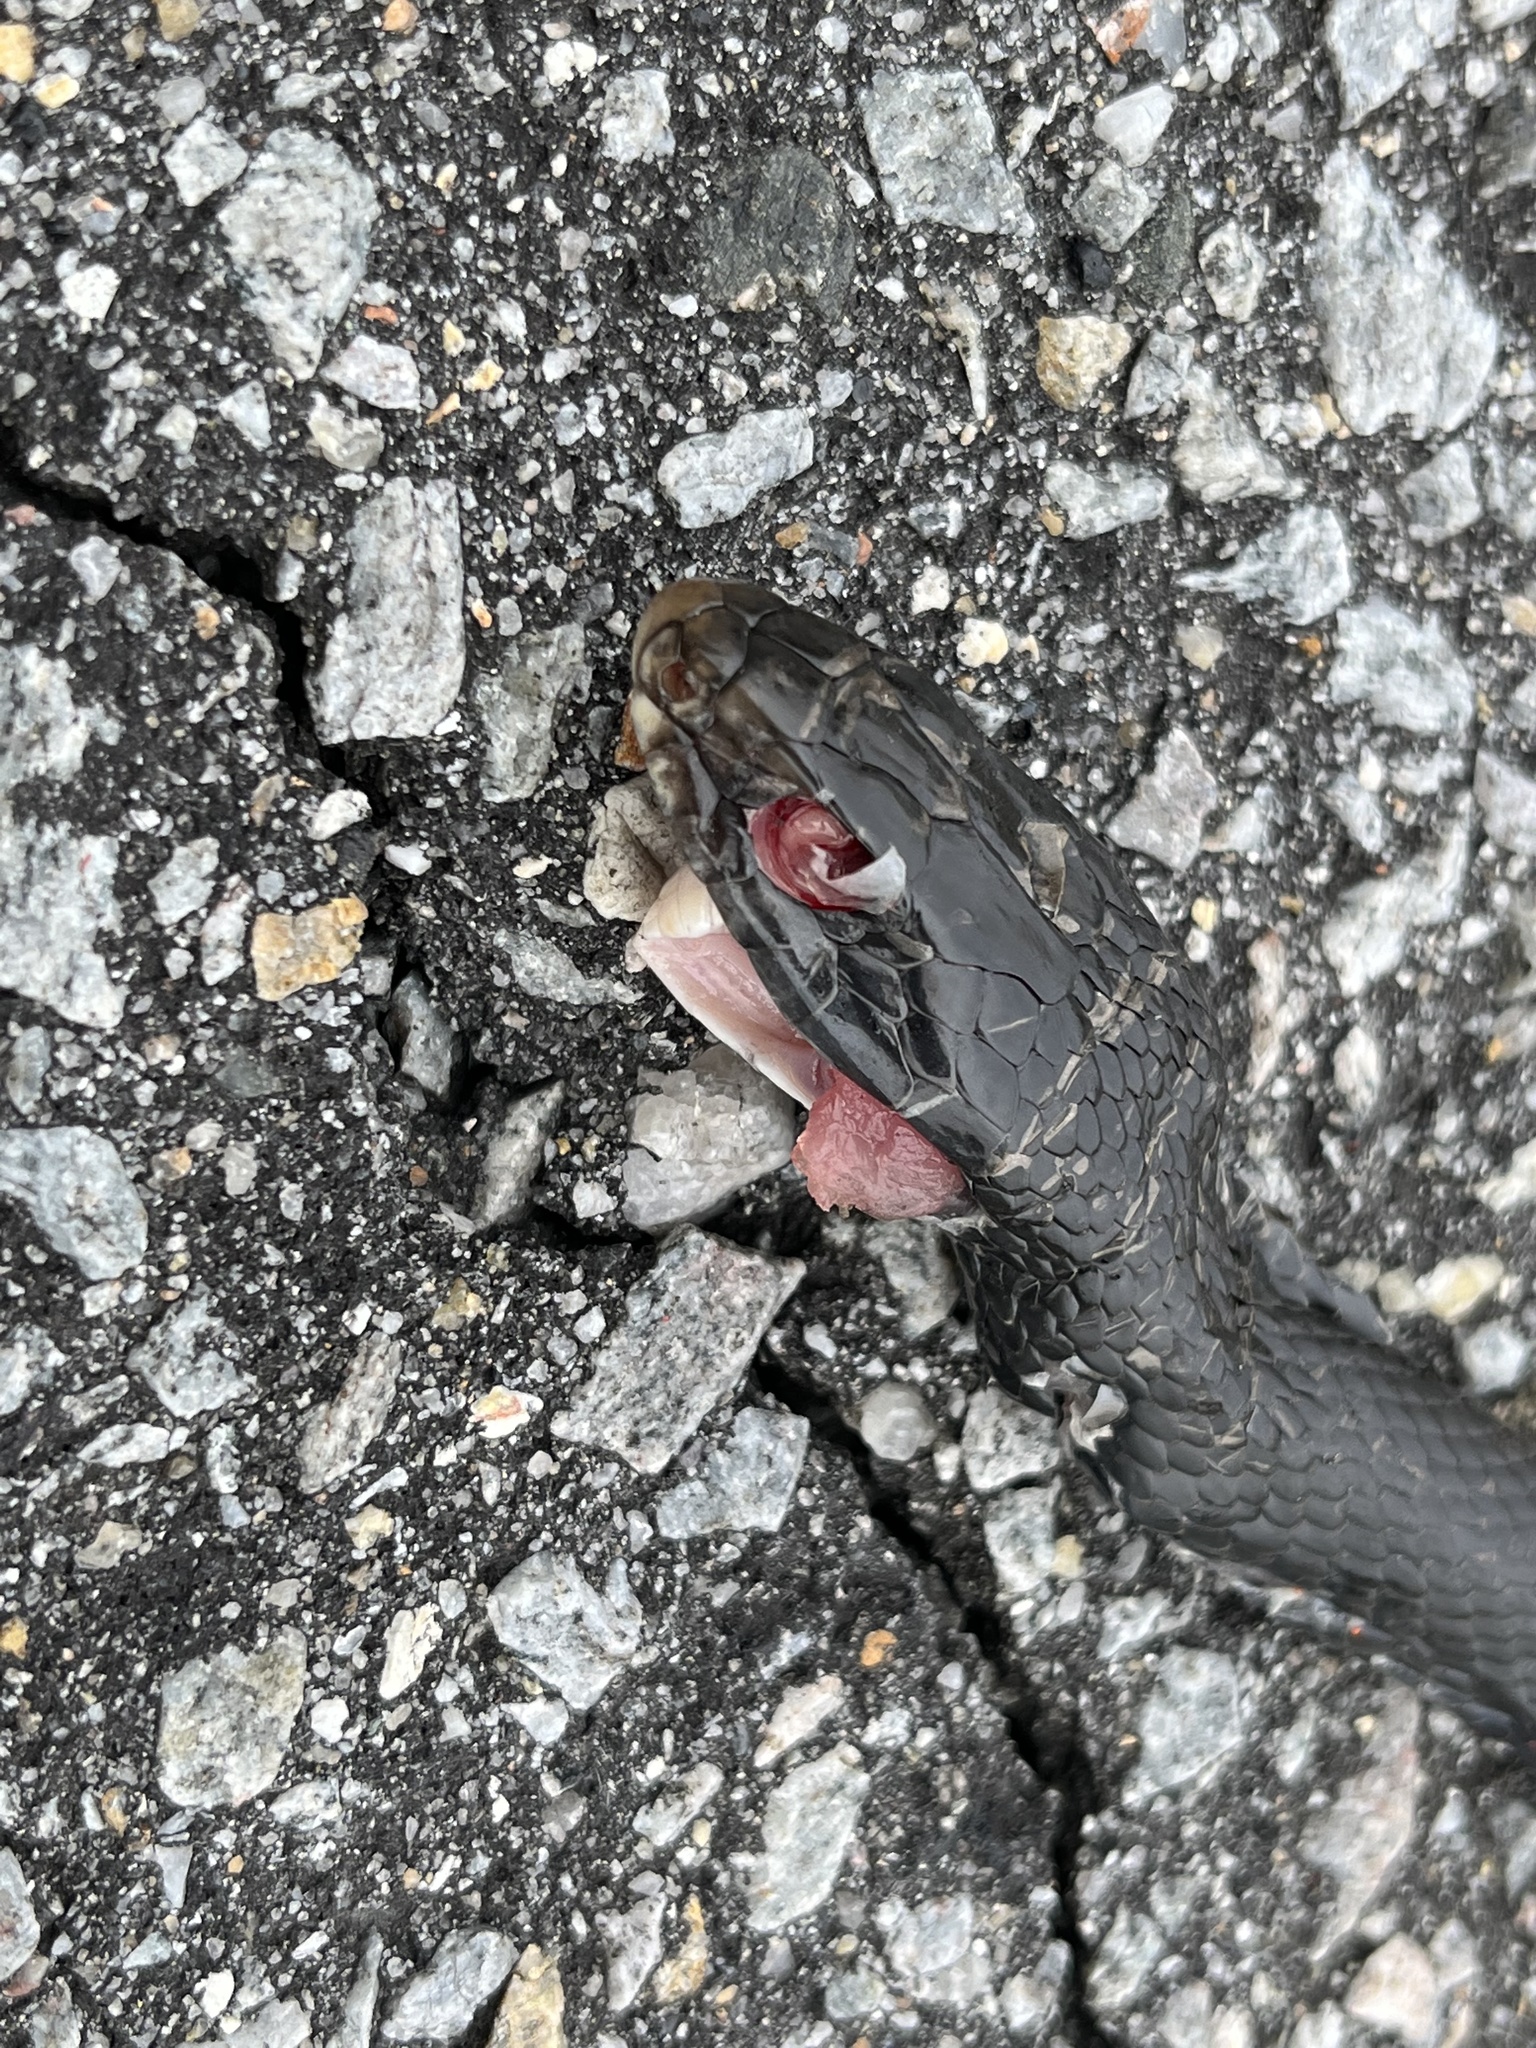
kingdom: Animalia
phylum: Chordata
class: Squamata
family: Colubridae
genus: Coluber
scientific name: Coluber constrictor
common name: Eastern racer
